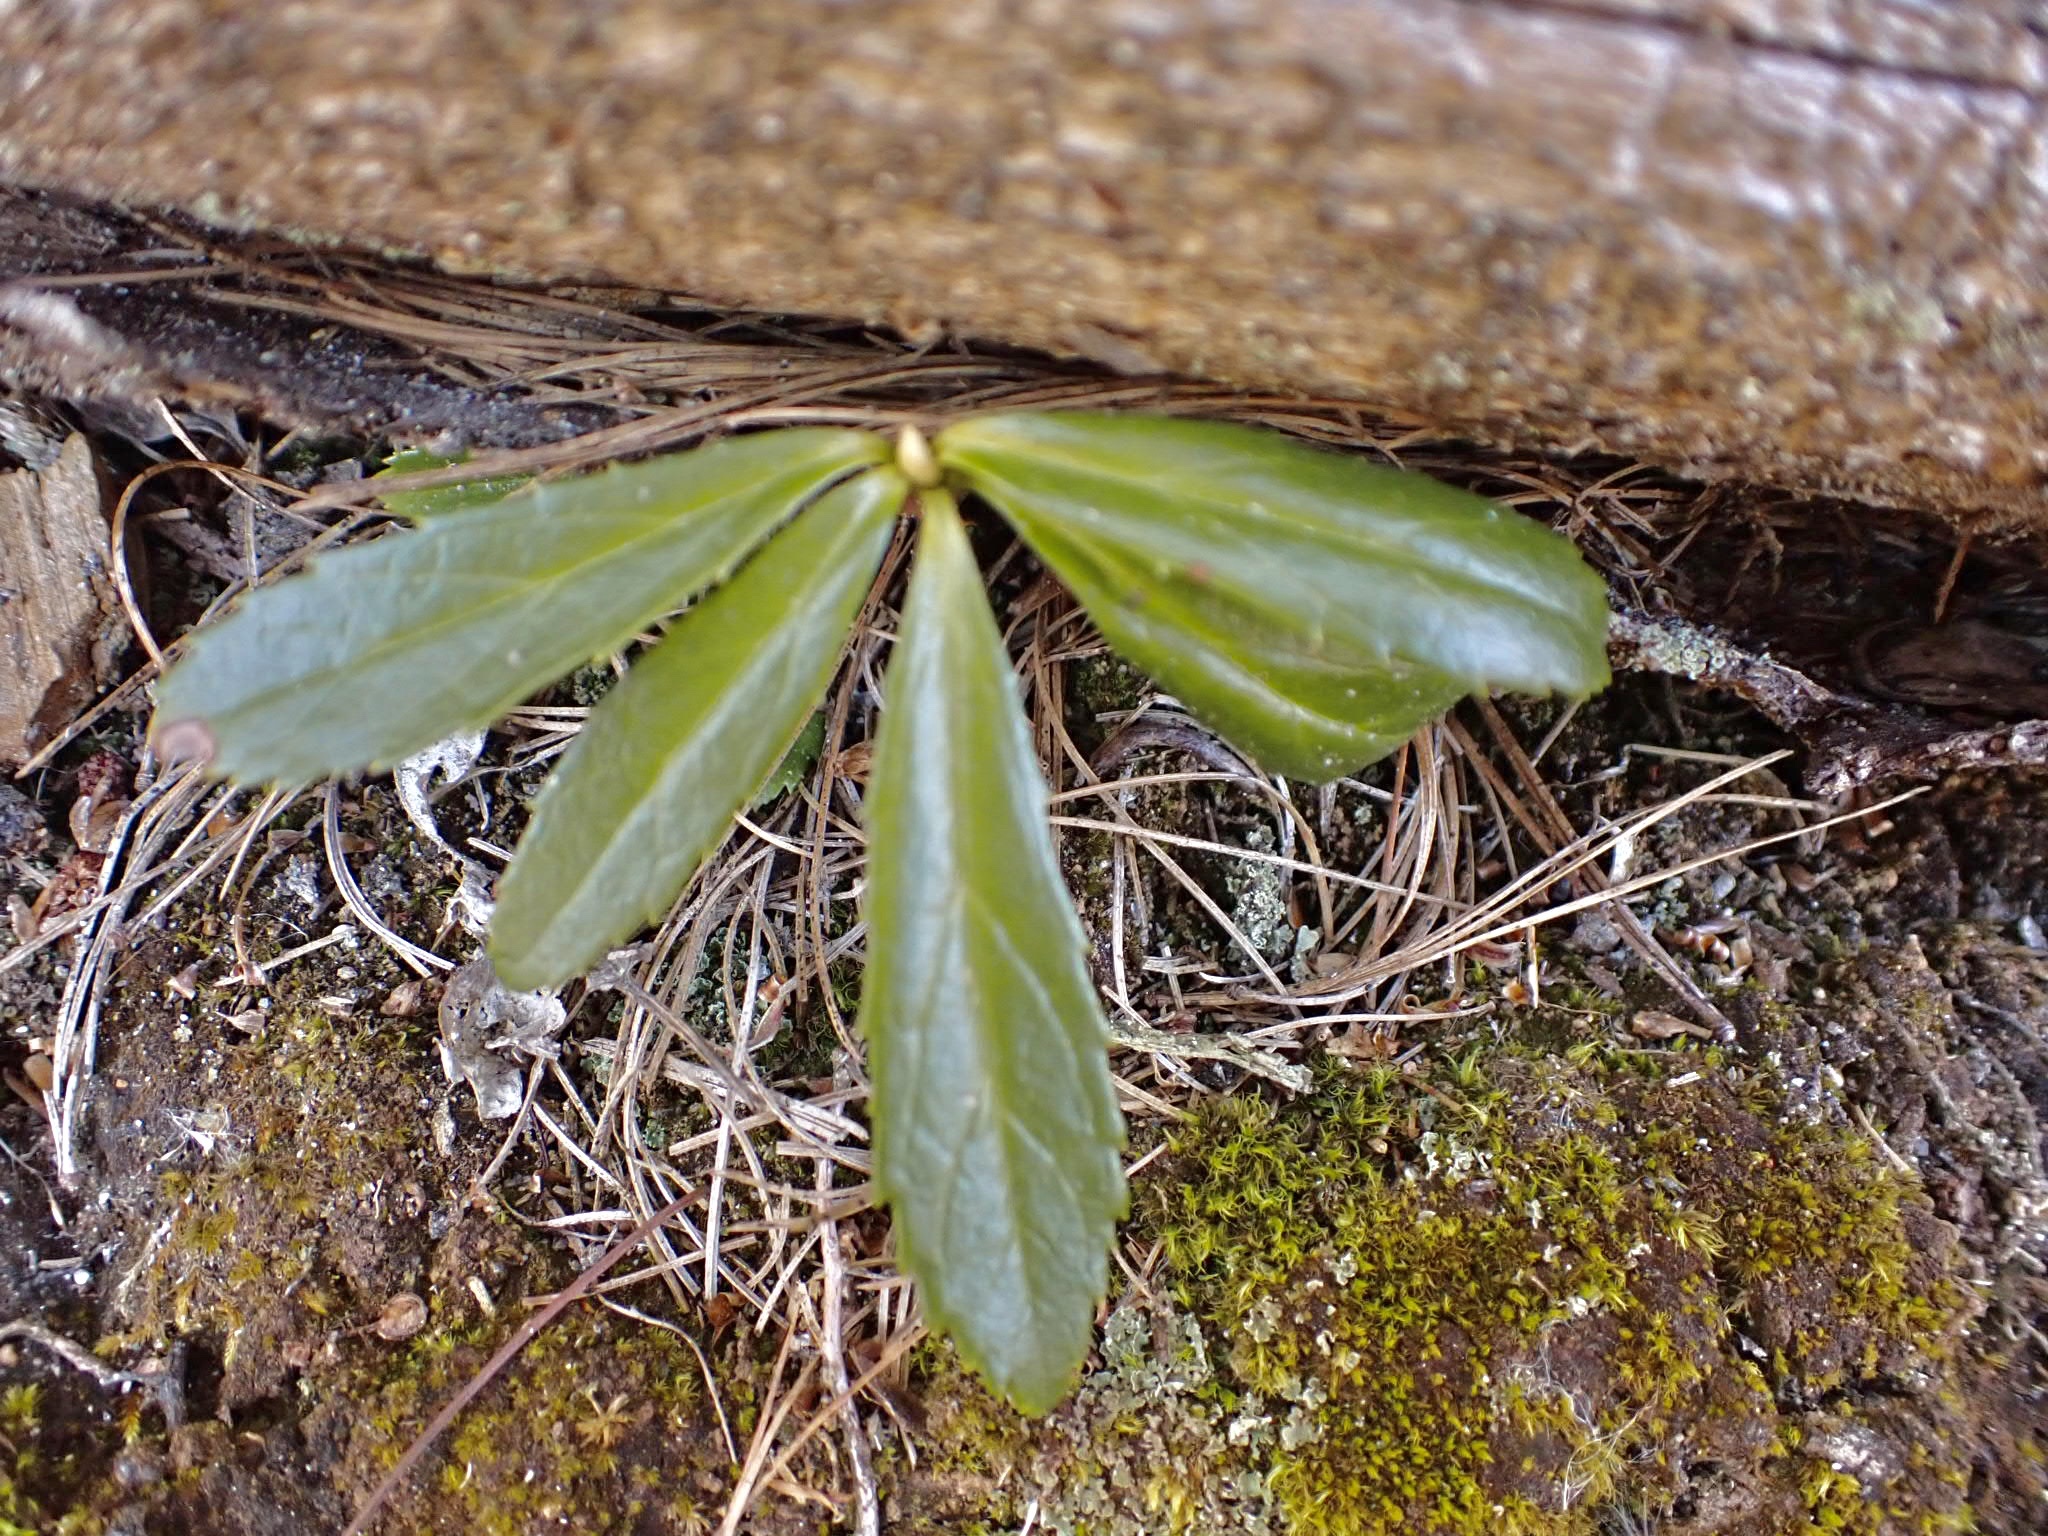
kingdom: Plantae
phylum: Tracheophyta
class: Magnoliopsida
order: Ericales
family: Ericaceae
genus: Chimaphila
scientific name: Chimaphila umbellata
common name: Pipsissewa
